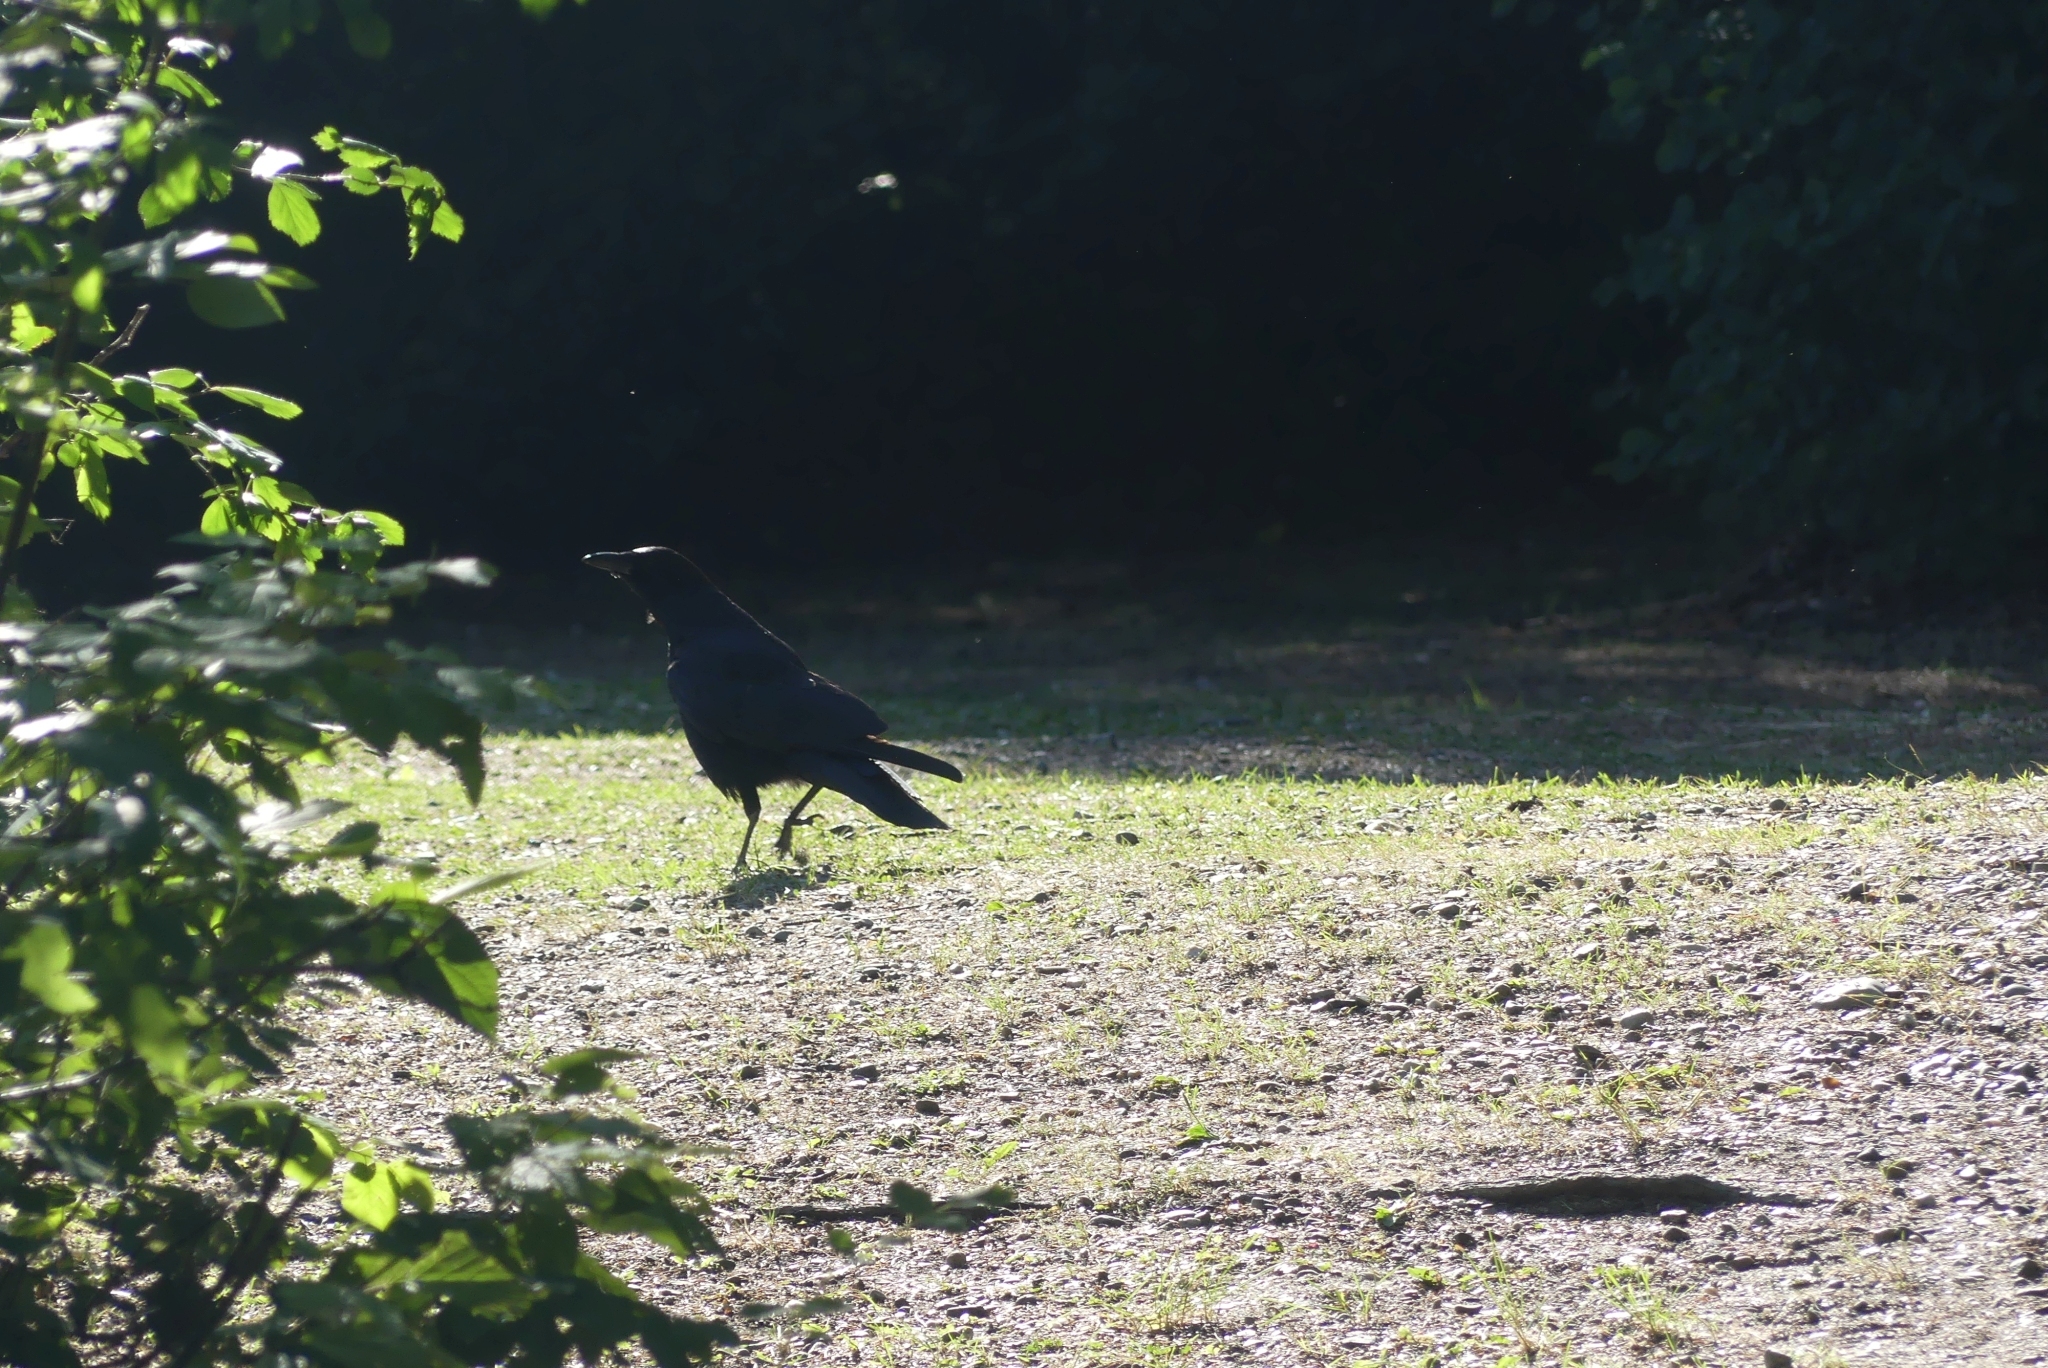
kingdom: Animalia
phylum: Chordata
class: Aves
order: Passeriformes
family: Corvidae
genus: Corvus
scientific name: Corvus brachyrhynchos
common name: American crow
